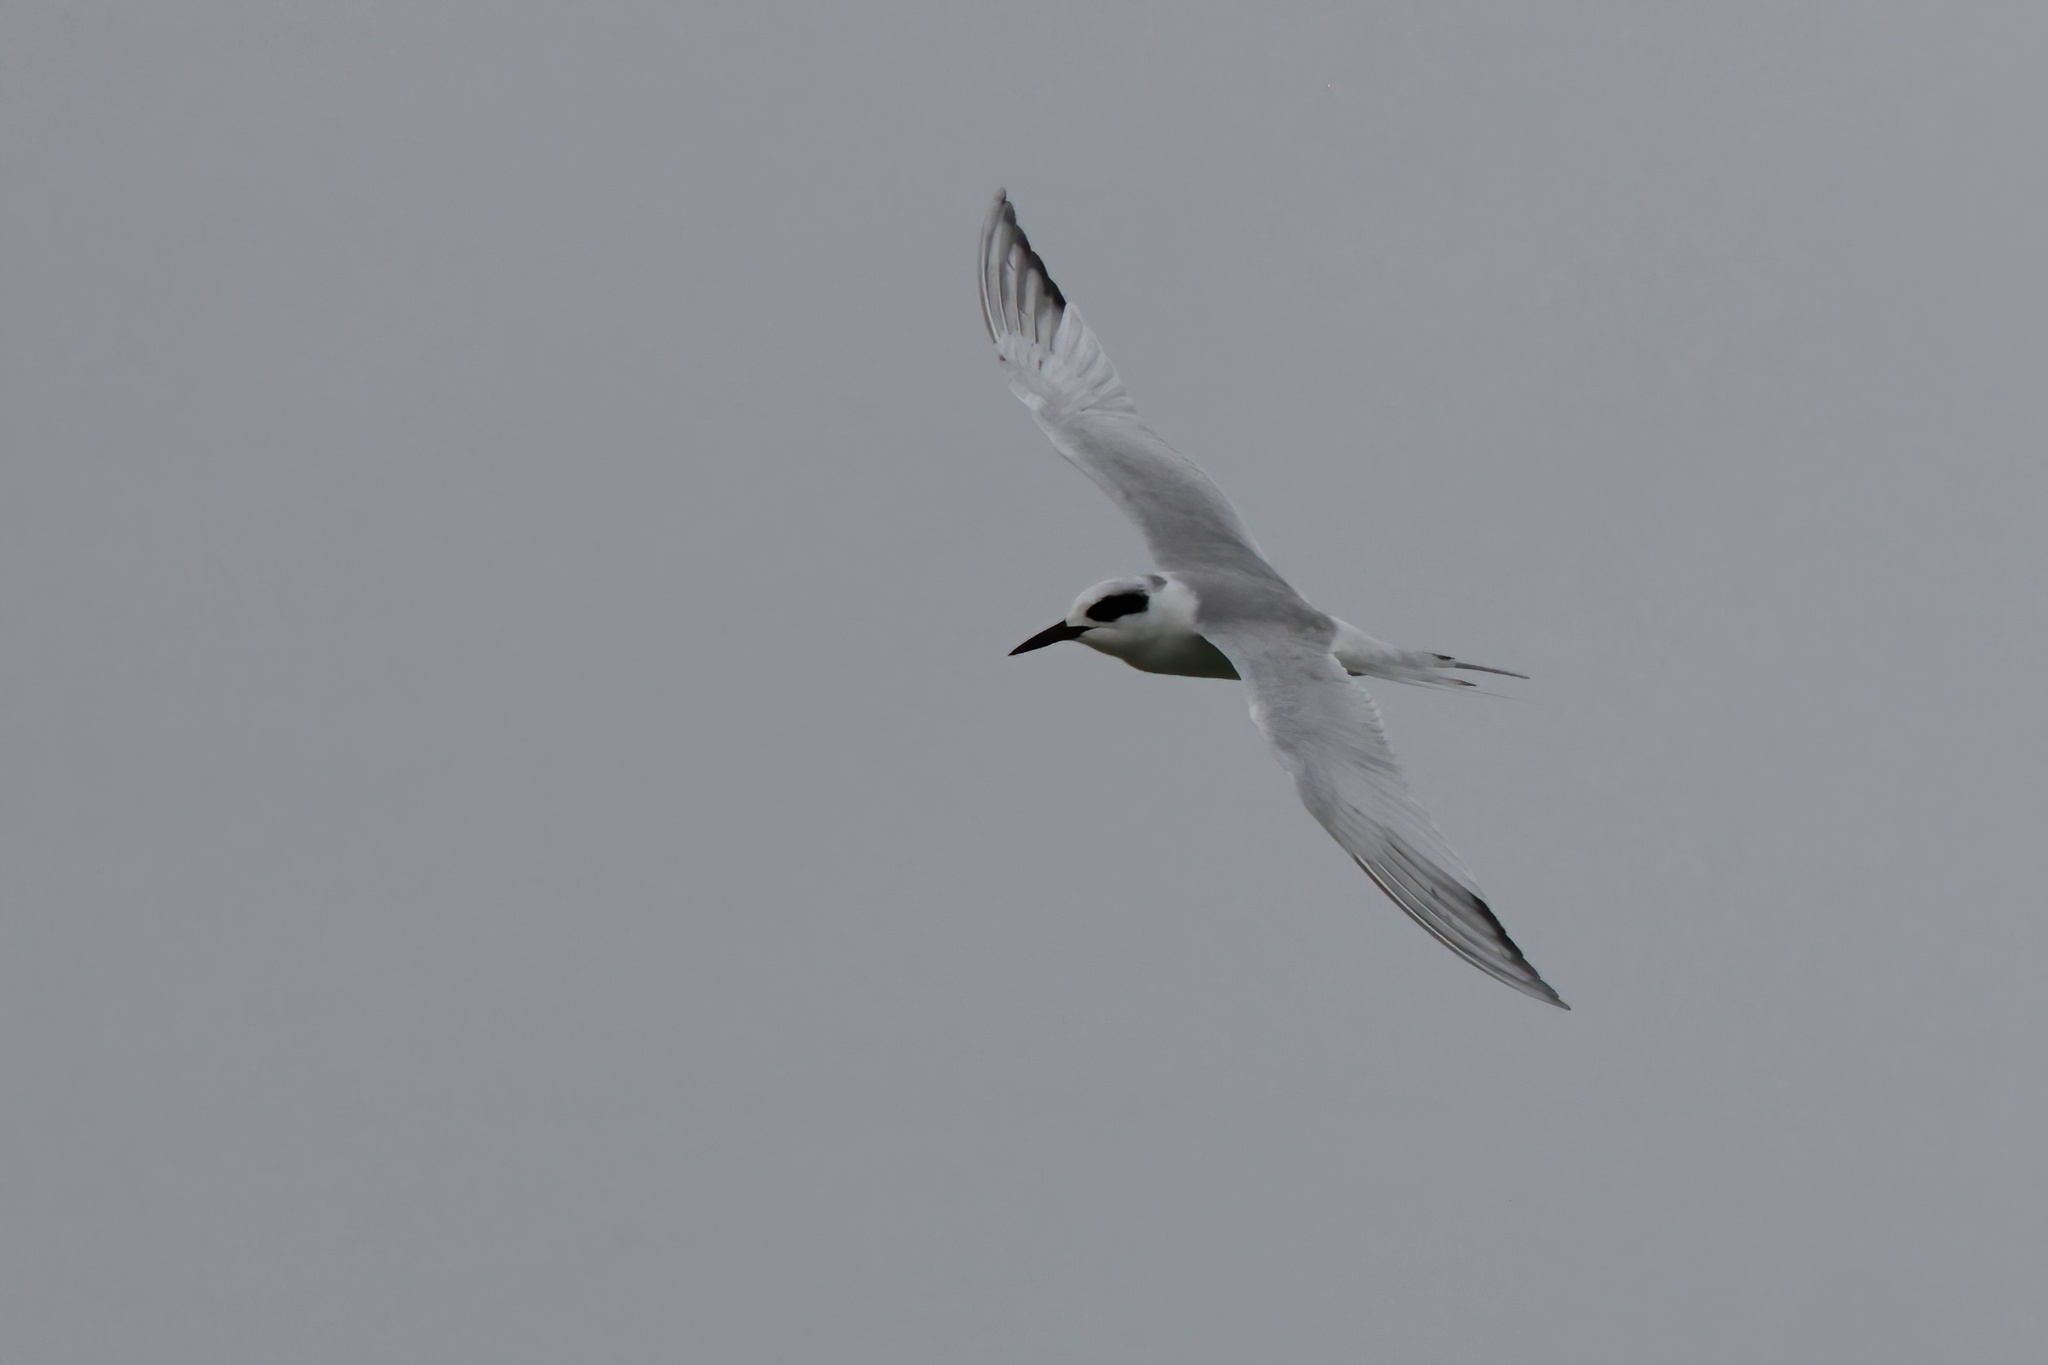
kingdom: Animalia
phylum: Chordata
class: Aves
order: Charadriiformes
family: Laridae
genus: Sterna
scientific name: Sterna forsteri
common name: Forster's tern
